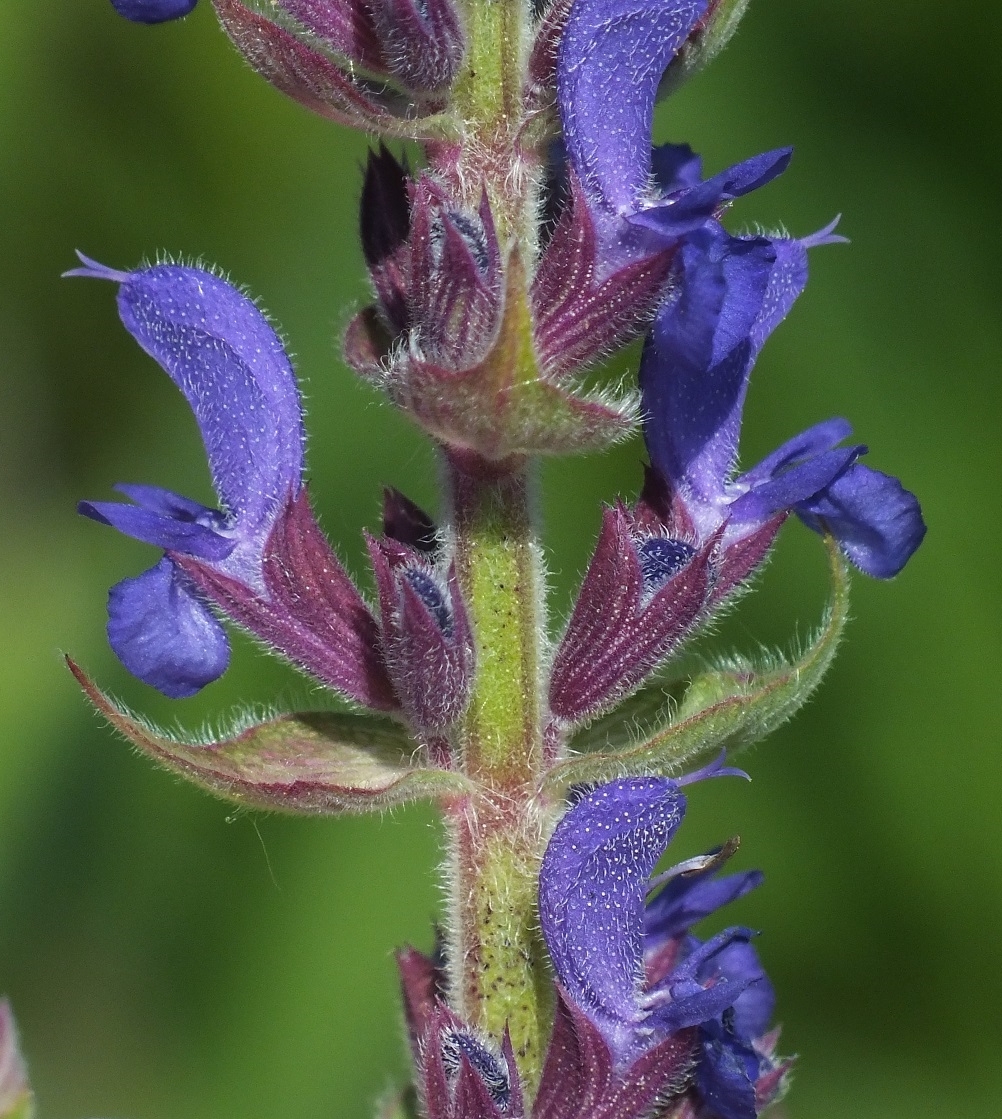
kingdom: Plantae
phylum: Tracheophyta
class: Magnoliopsida
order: Lamiales
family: Lamiaceae
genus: Salvia
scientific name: Salvia nemorosa
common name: Balkan clary
